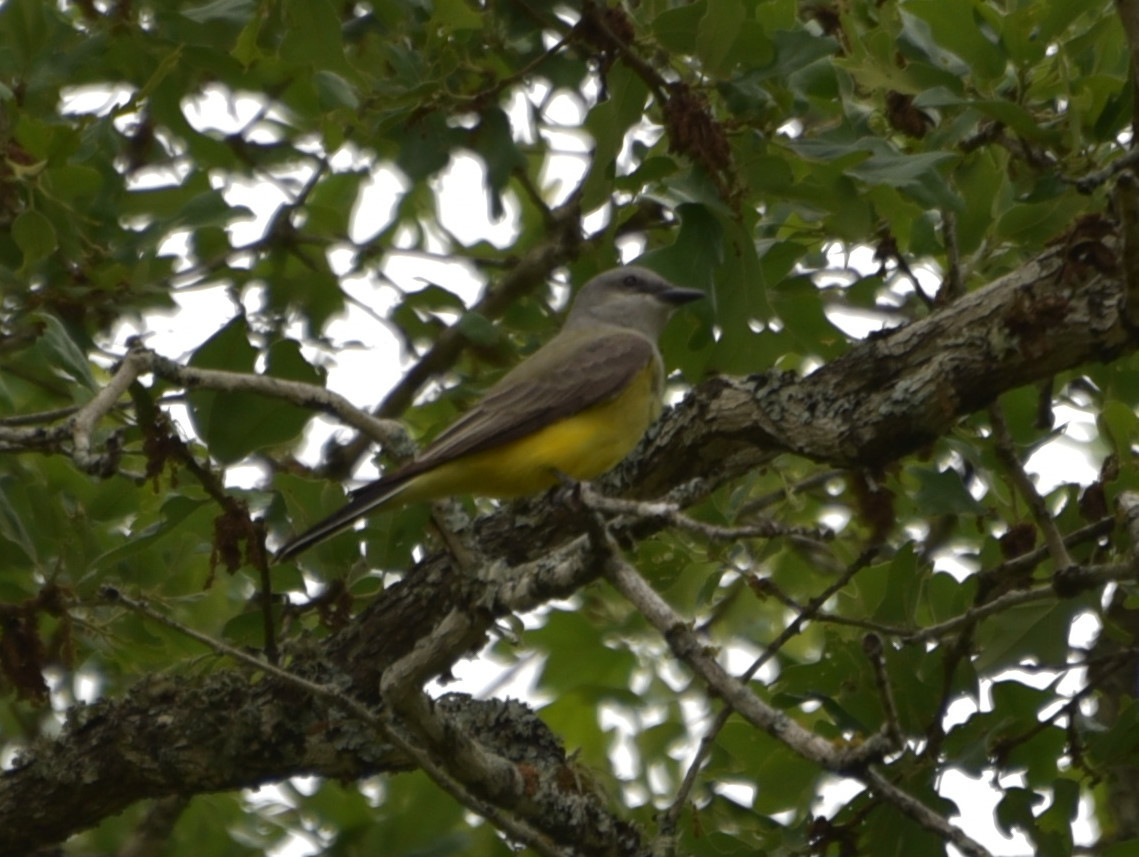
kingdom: Animalia
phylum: Chordata
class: Aves
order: Passeriformes
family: Tyrannidae
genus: Tyrannus
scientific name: Tyrannus verticalis
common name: Western kingbird
